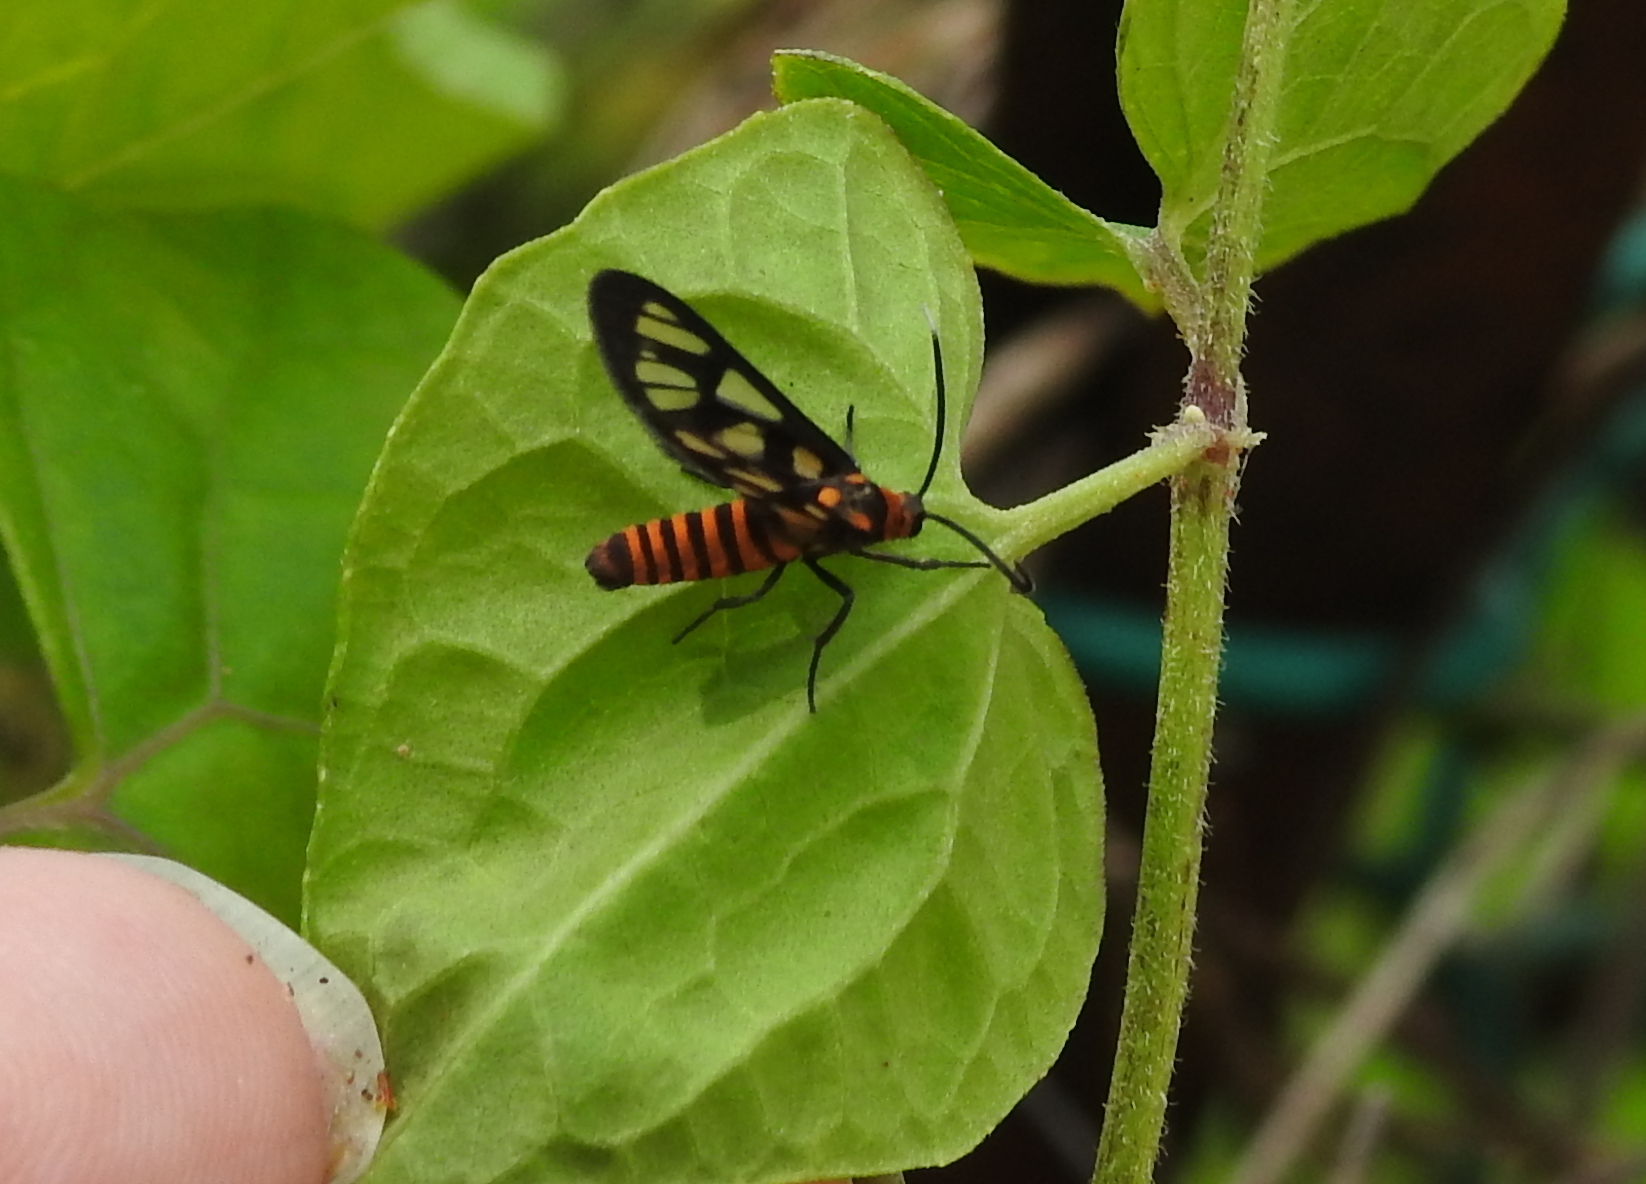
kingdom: Animalia
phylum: Arthropoda
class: Insecta
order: Lepidoptera
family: Erebidae
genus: Amata
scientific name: Amata huebneri
